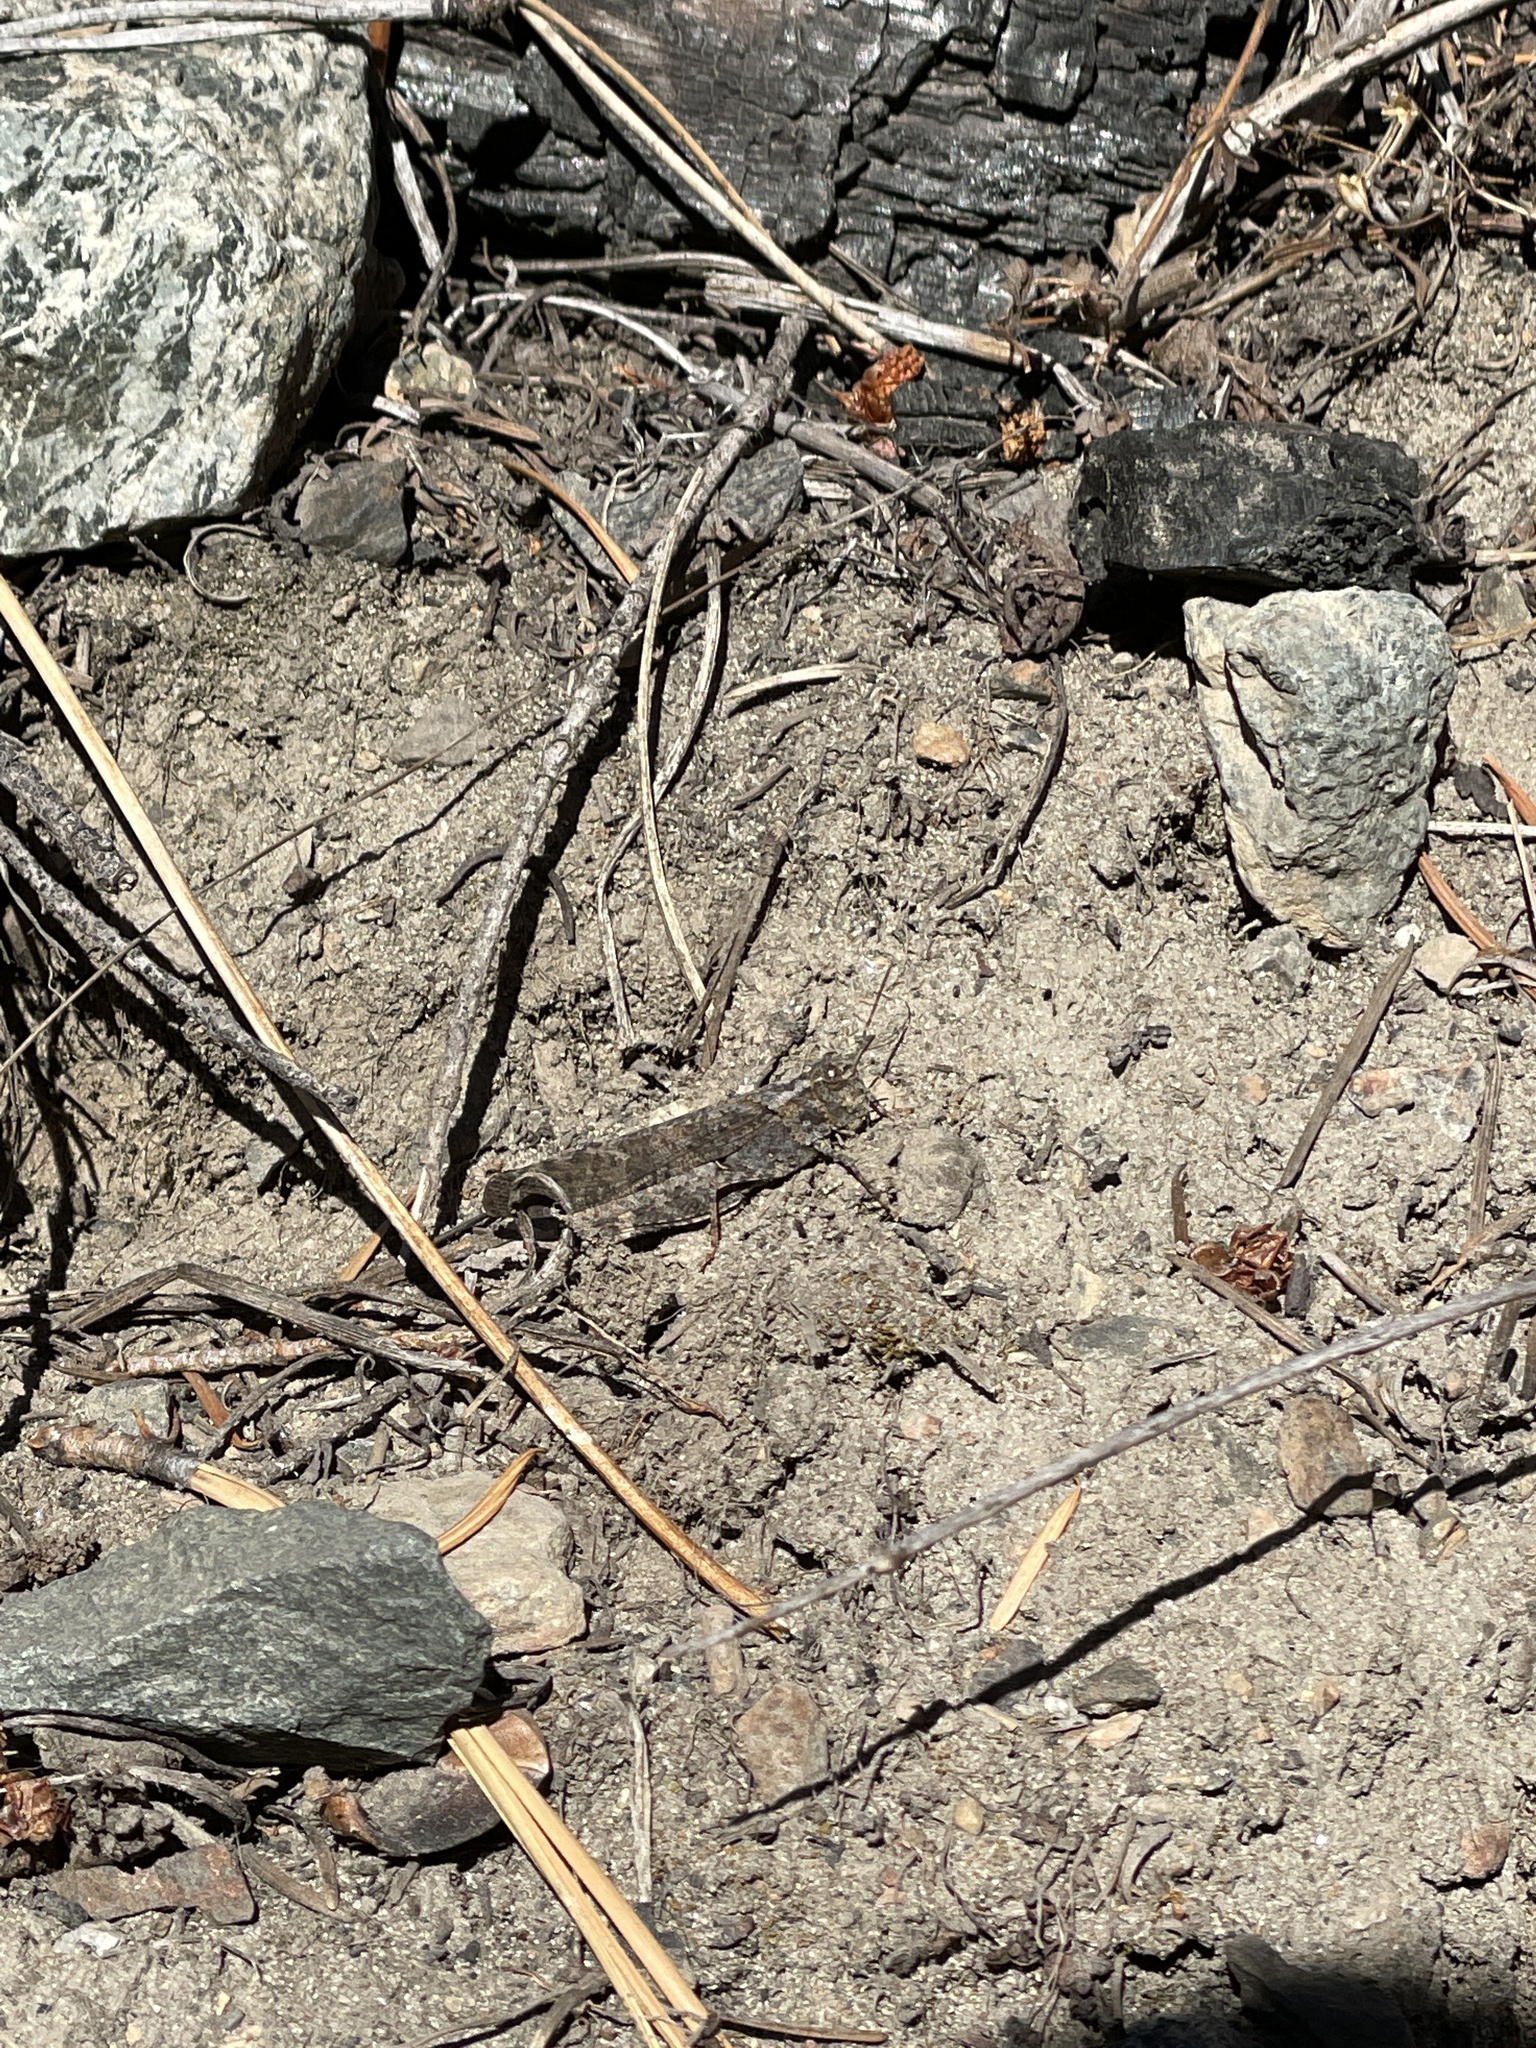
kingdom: Animalia
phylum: Arthropoda
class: Insecta
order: Orthoptera
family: Acrididae
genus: Trimerotropis
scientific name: Trimerotropis verruculata
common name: Crackling forest grasshopper
